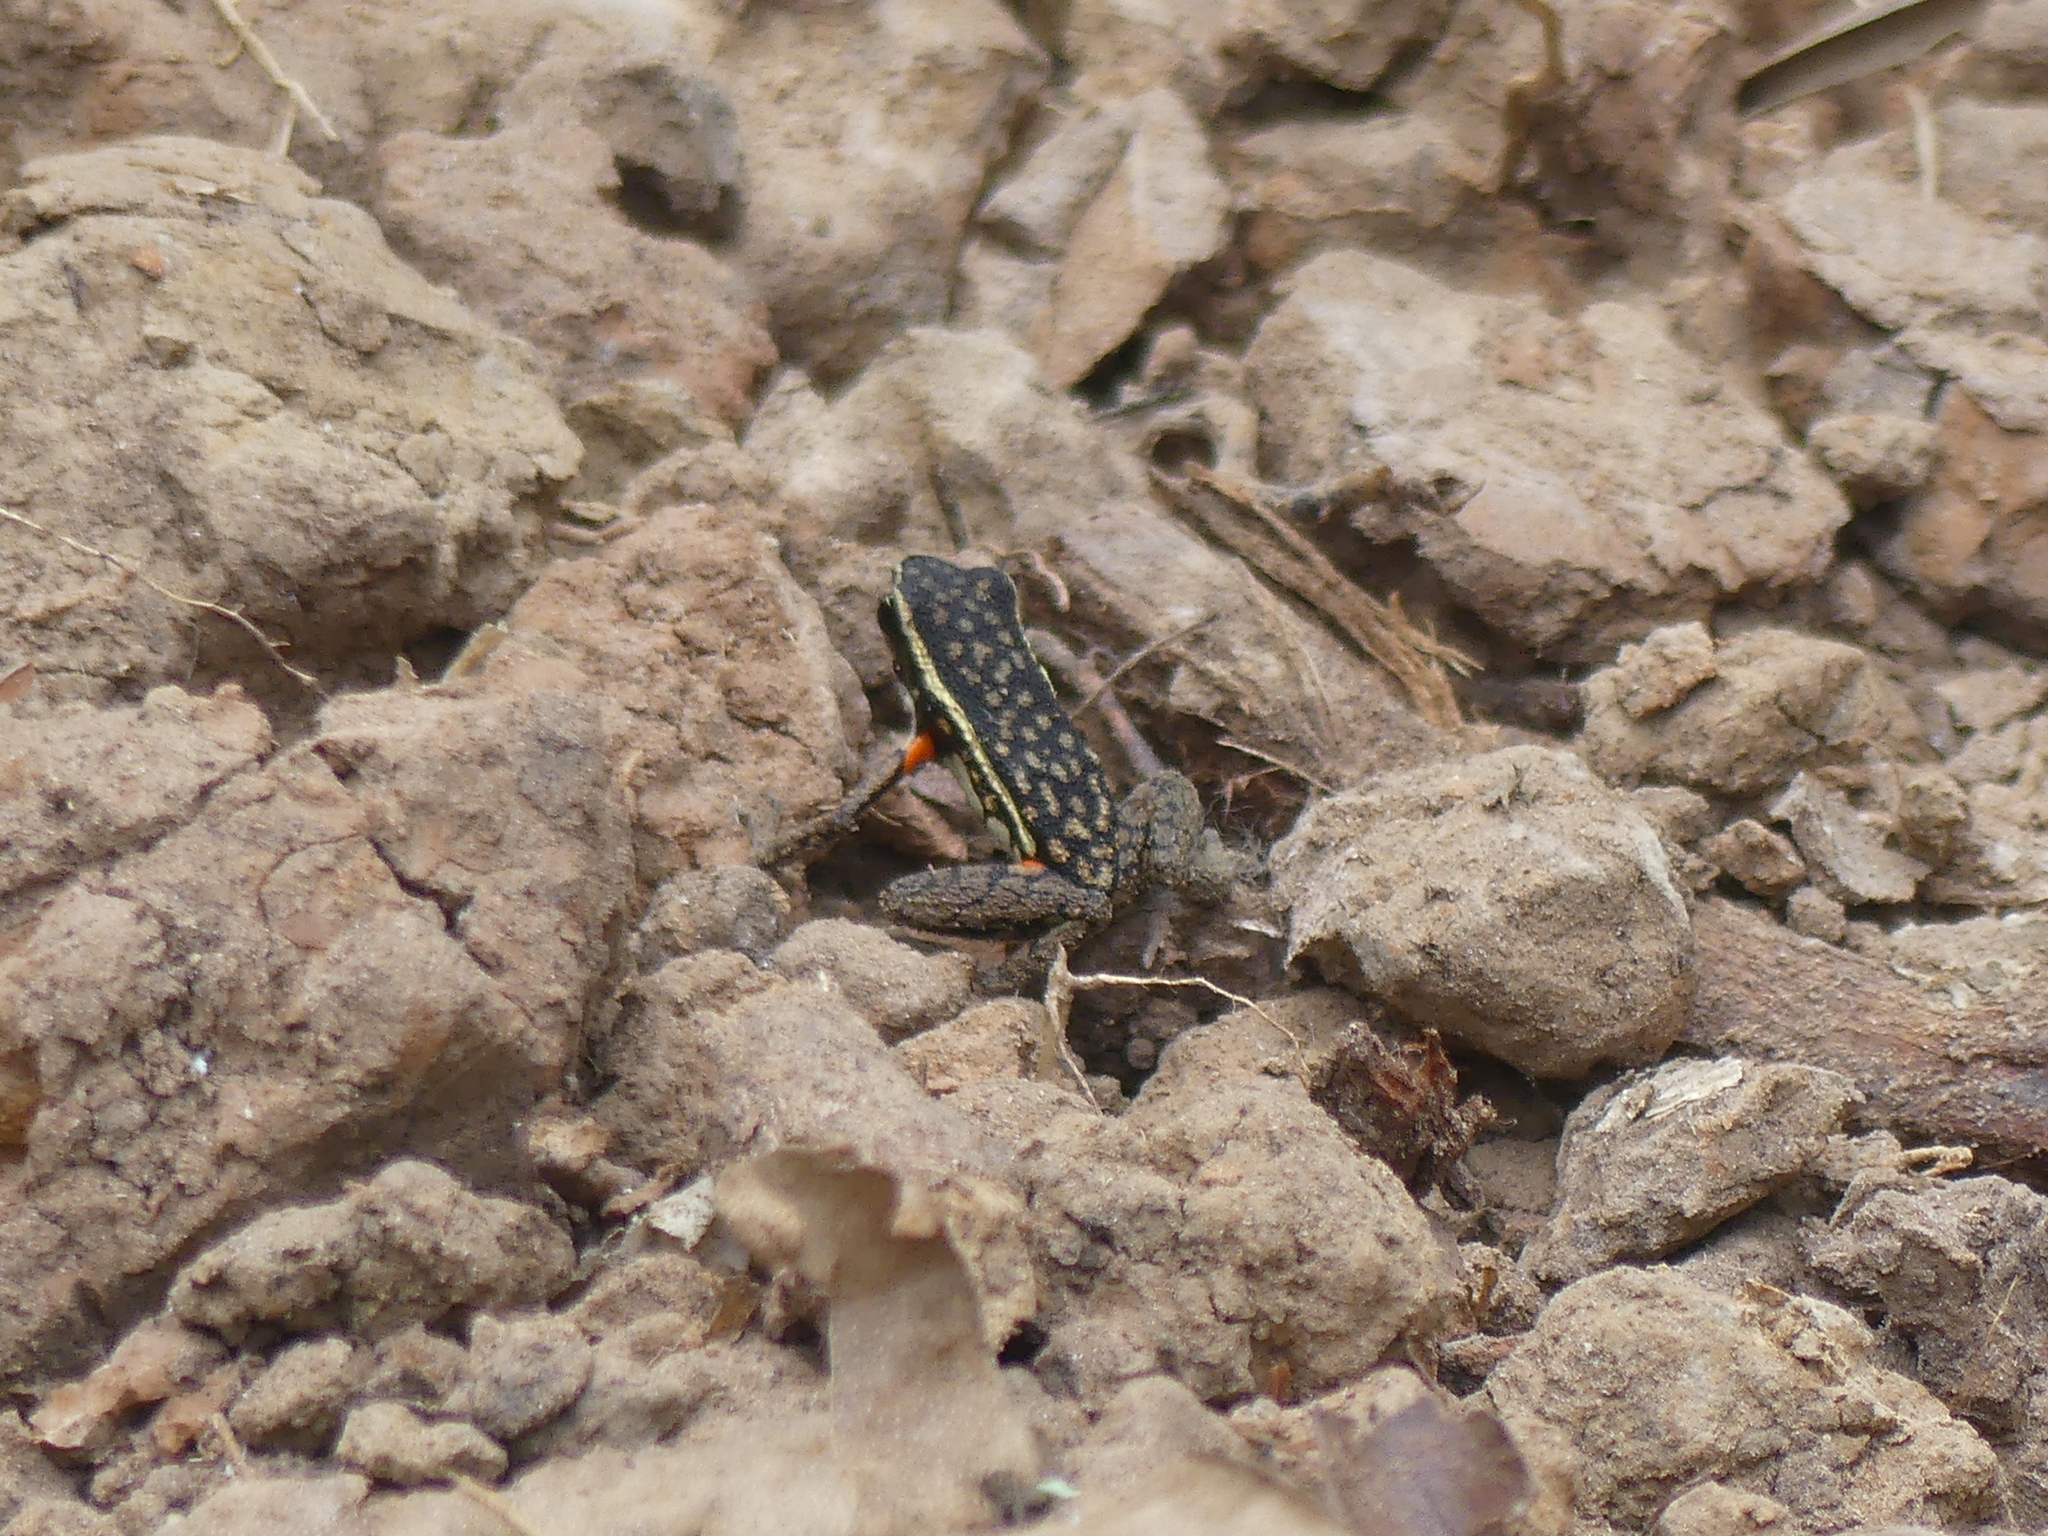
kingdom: Animalia
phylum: Chordata
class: Amphibia
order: Anura
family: Dendrobatidae
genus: Ameerega
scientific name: Ameerega panguana
